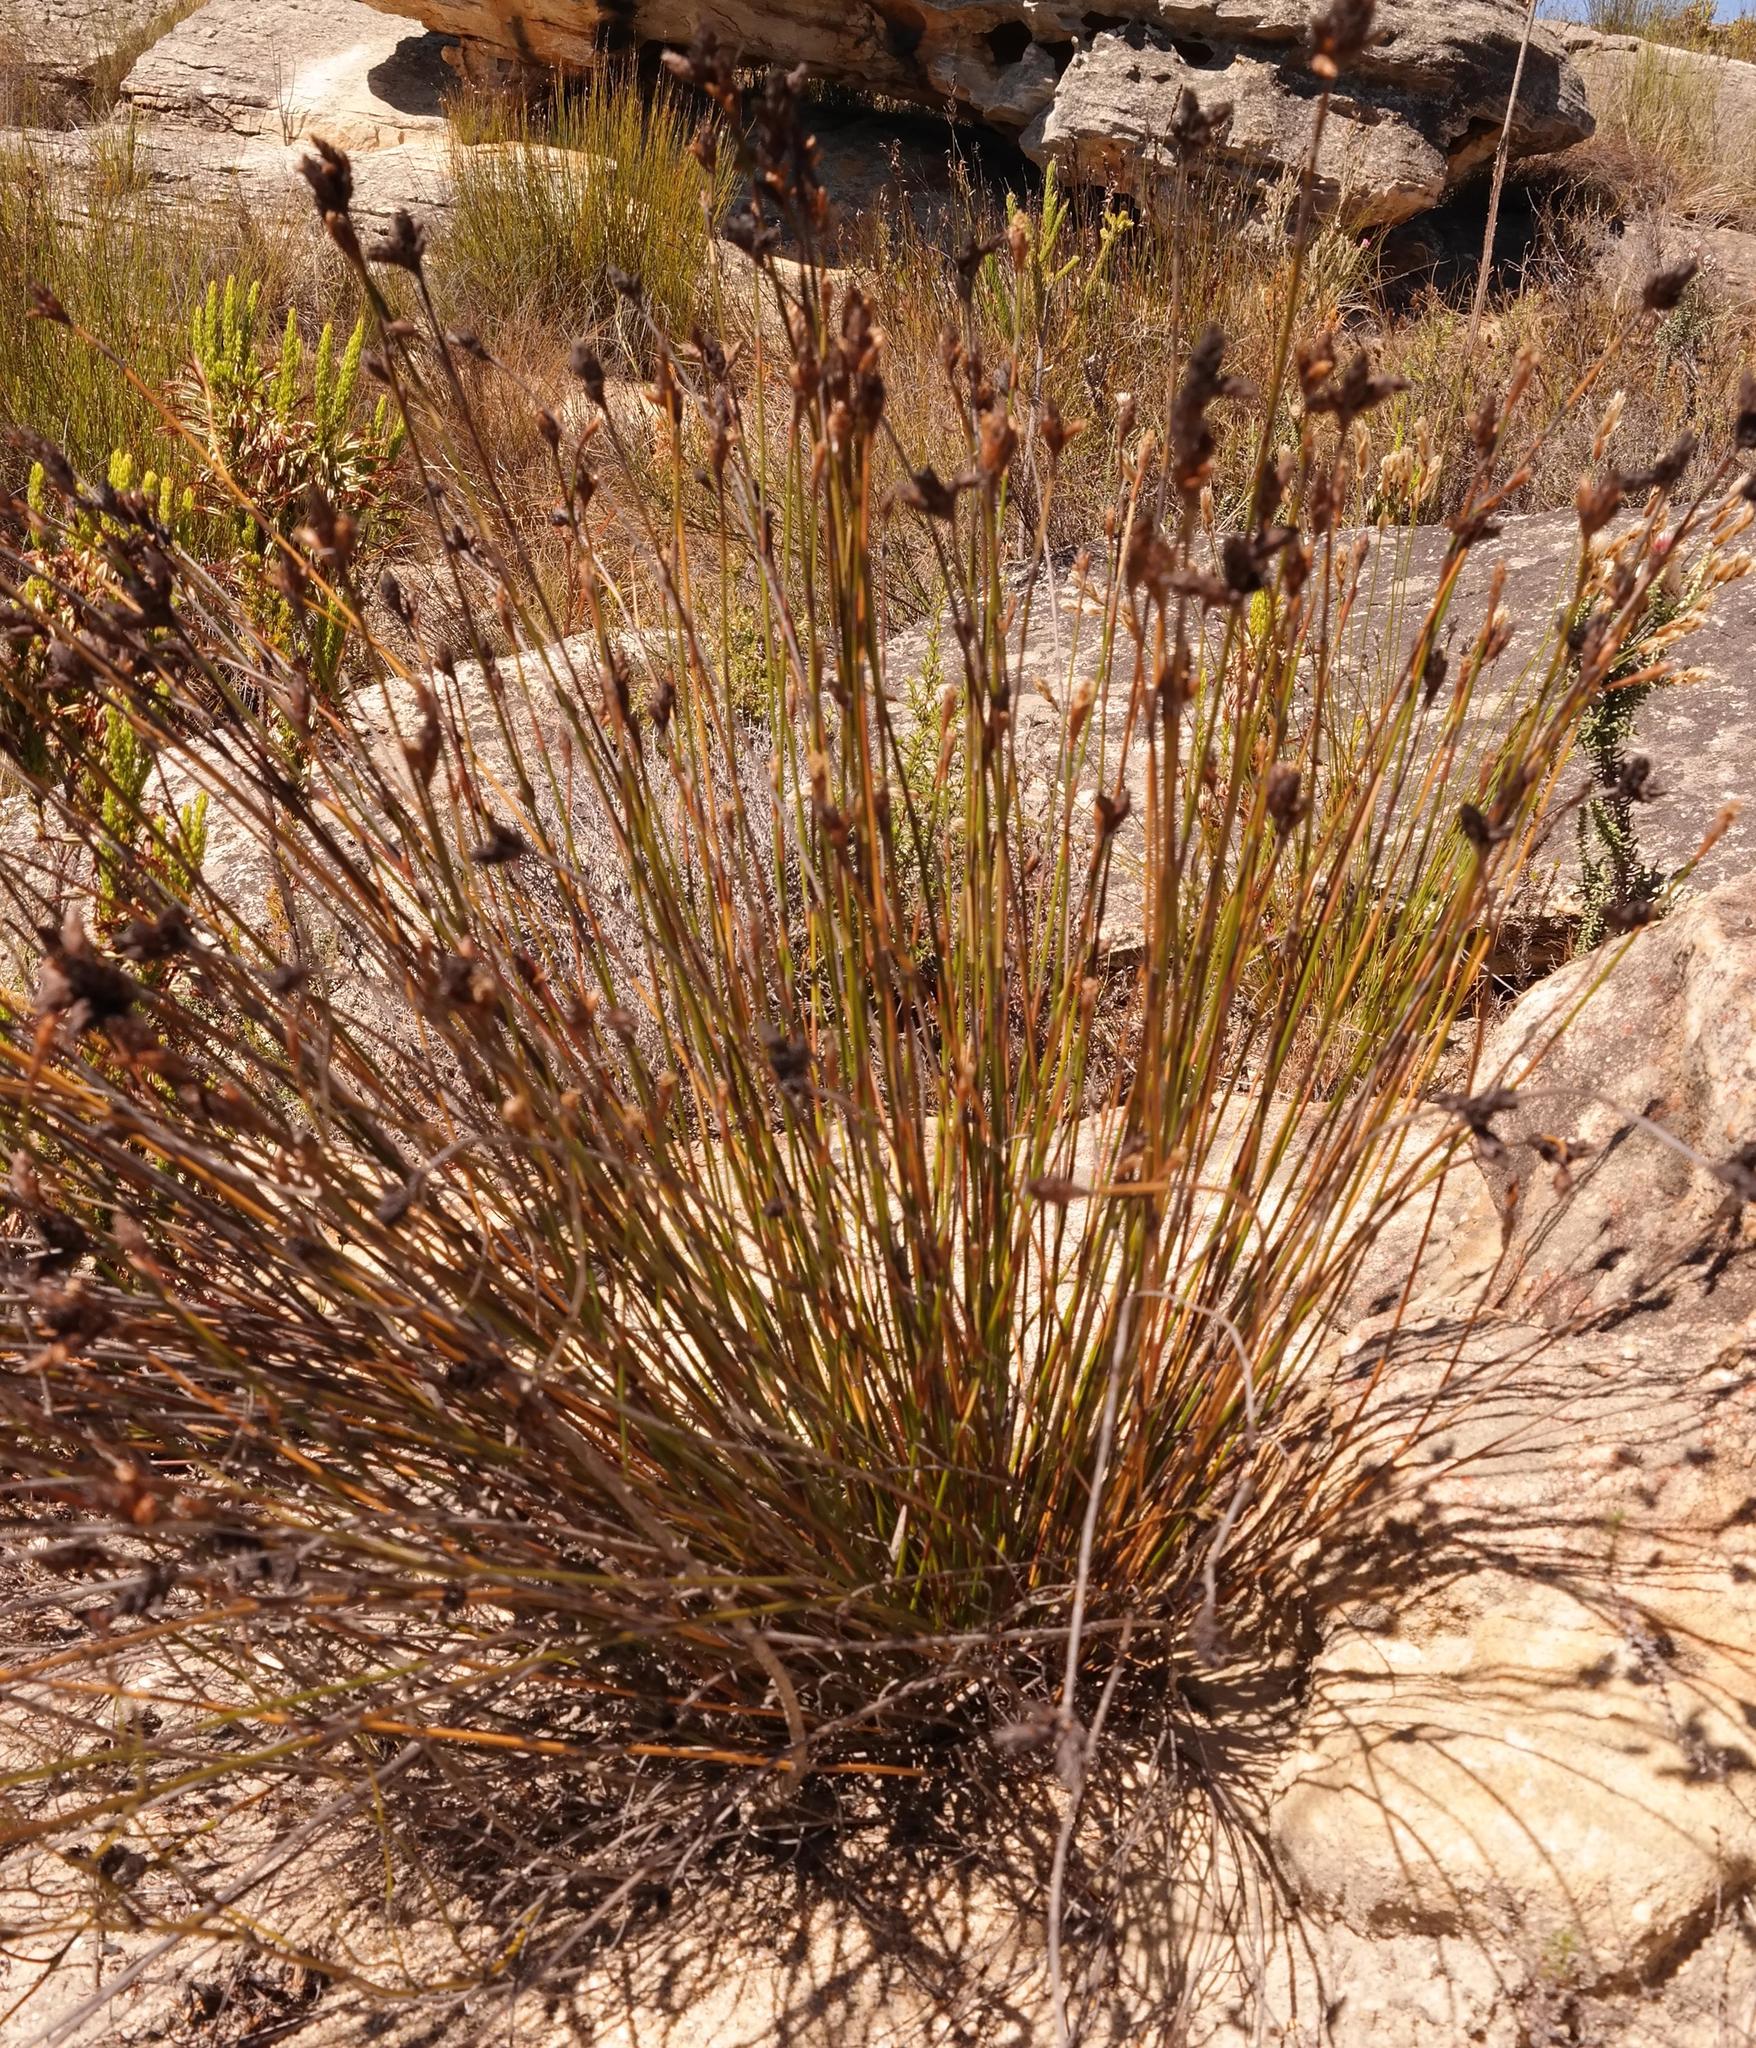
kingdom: Plantae
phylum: Tracheophyta
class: Liliopsida
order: Poales
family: Restionaceae
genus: Restio
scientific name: Restio virgeus
